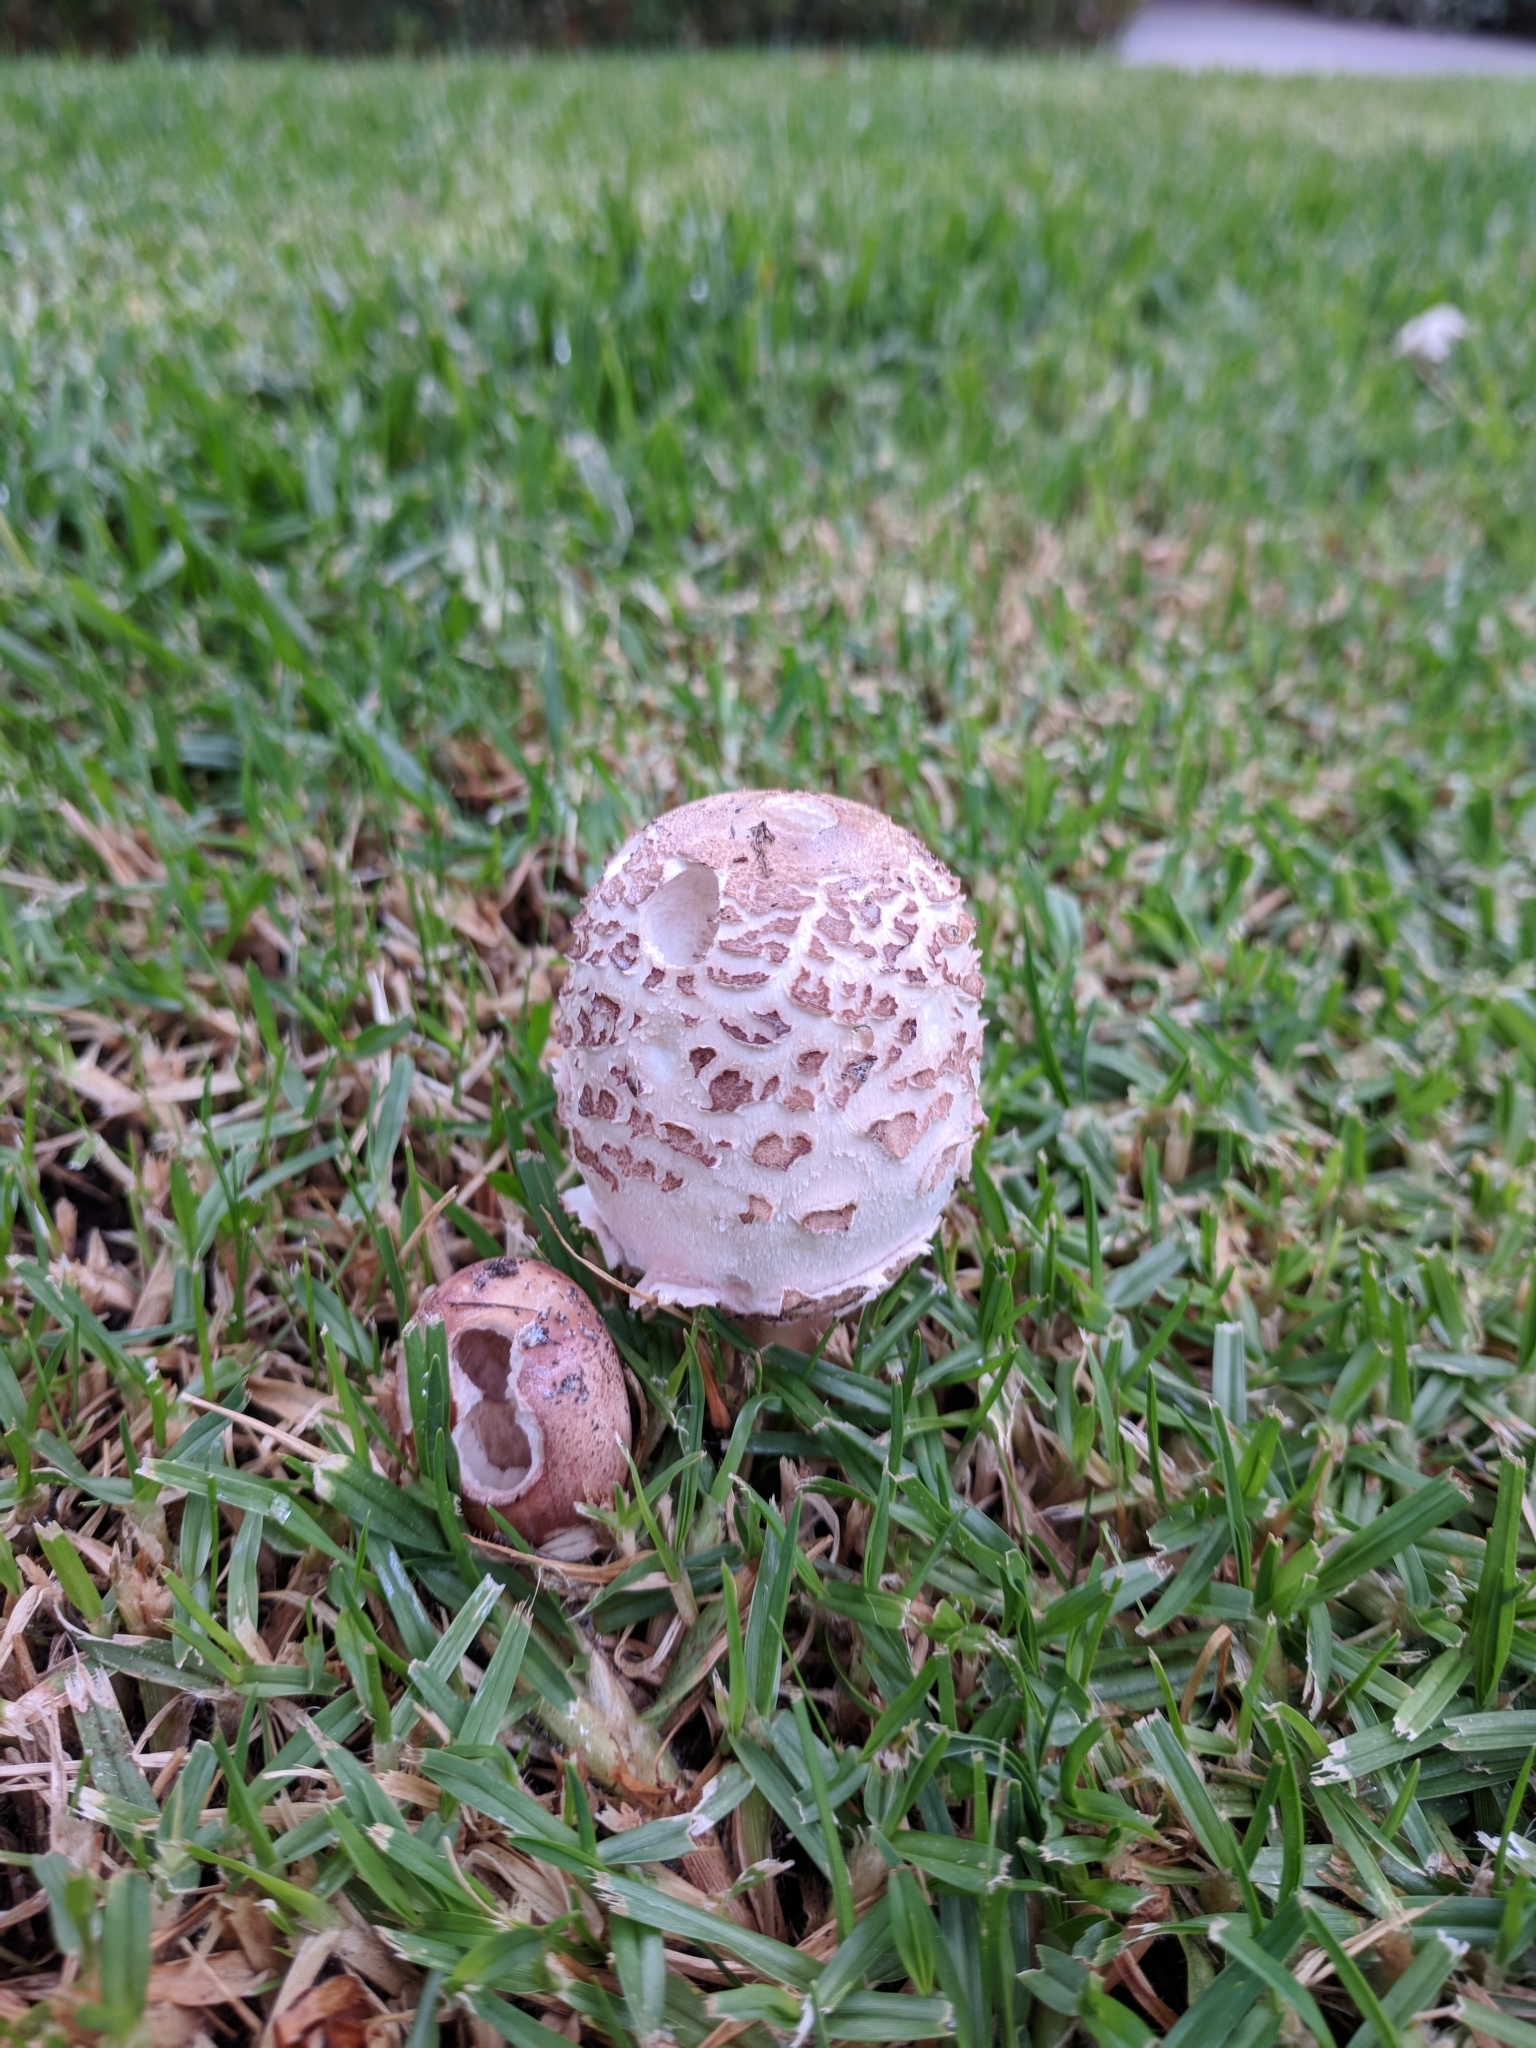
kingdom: Fungi
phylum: Basidiomycota
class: Agaricomycetes
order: Agaricales
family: Agaricaceae
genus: Chlorophyllum
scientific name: Chlorophyllum molybdites
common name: False parasol
